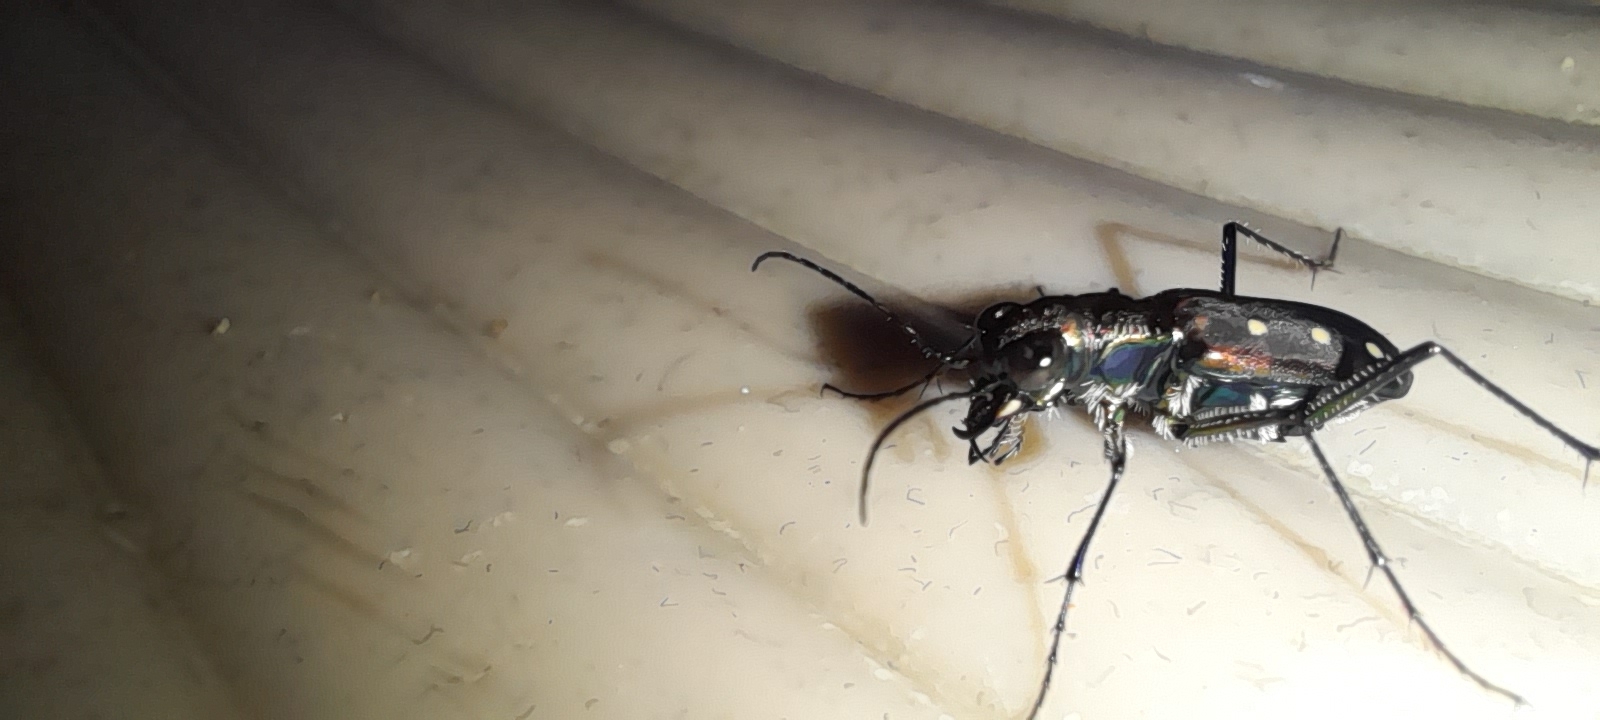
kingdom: Animalia
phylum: Arthropoda
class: Insecta
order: Coleoptera
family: Carabidae
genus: Cicindela
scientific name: Cicindela sexpunctata
